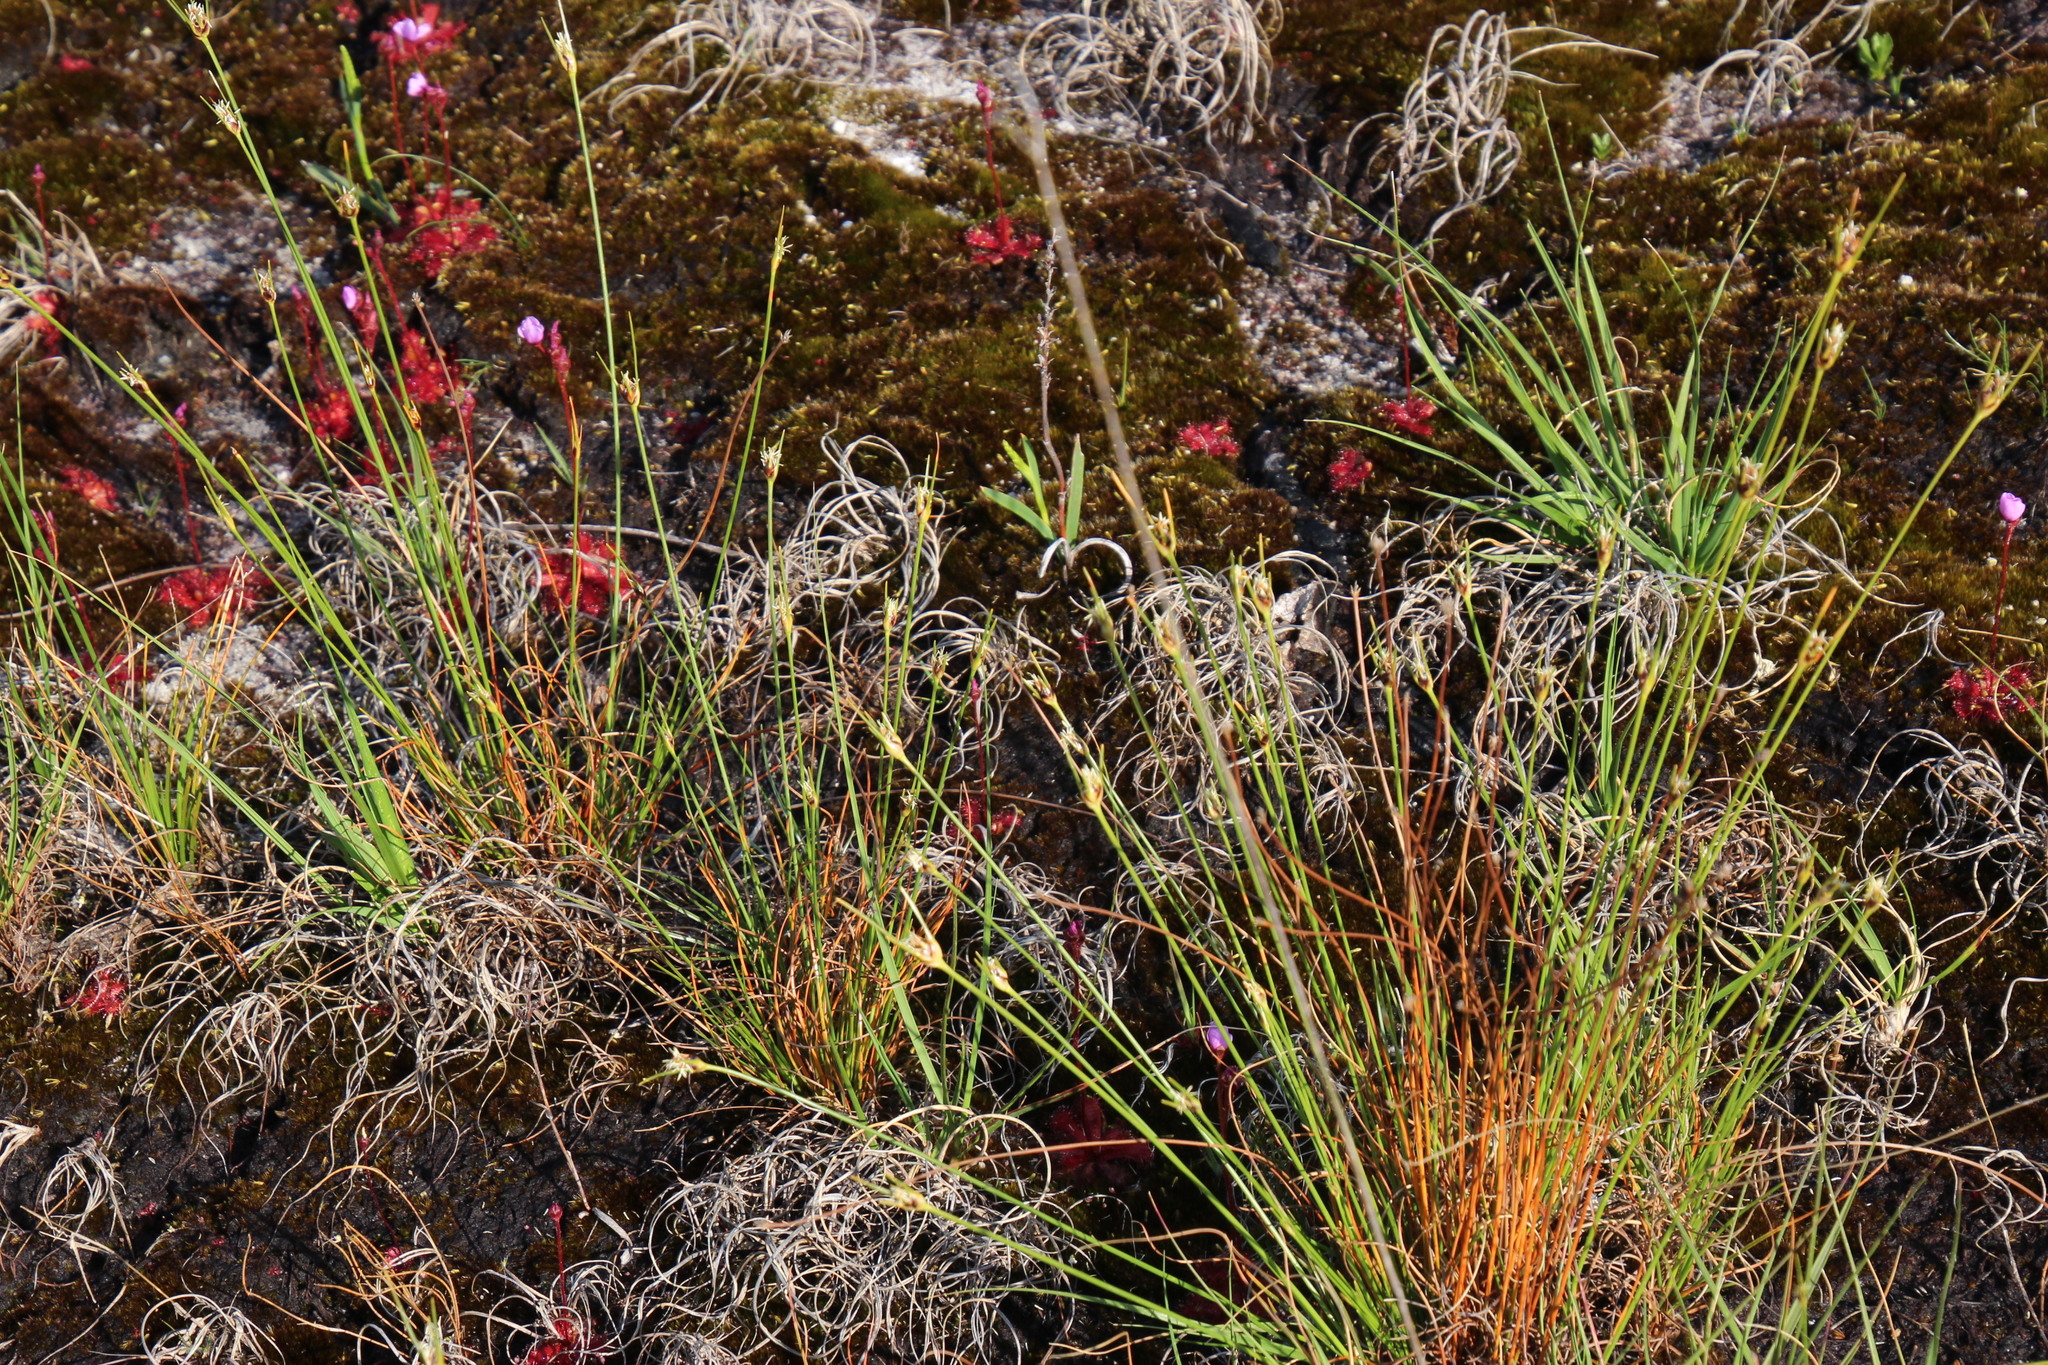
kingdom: Plantae
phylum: Tracheophyta
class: Liliopsida
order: Poales
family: Cyperaceae
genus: Ficinia
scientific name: Ficinia capitella
